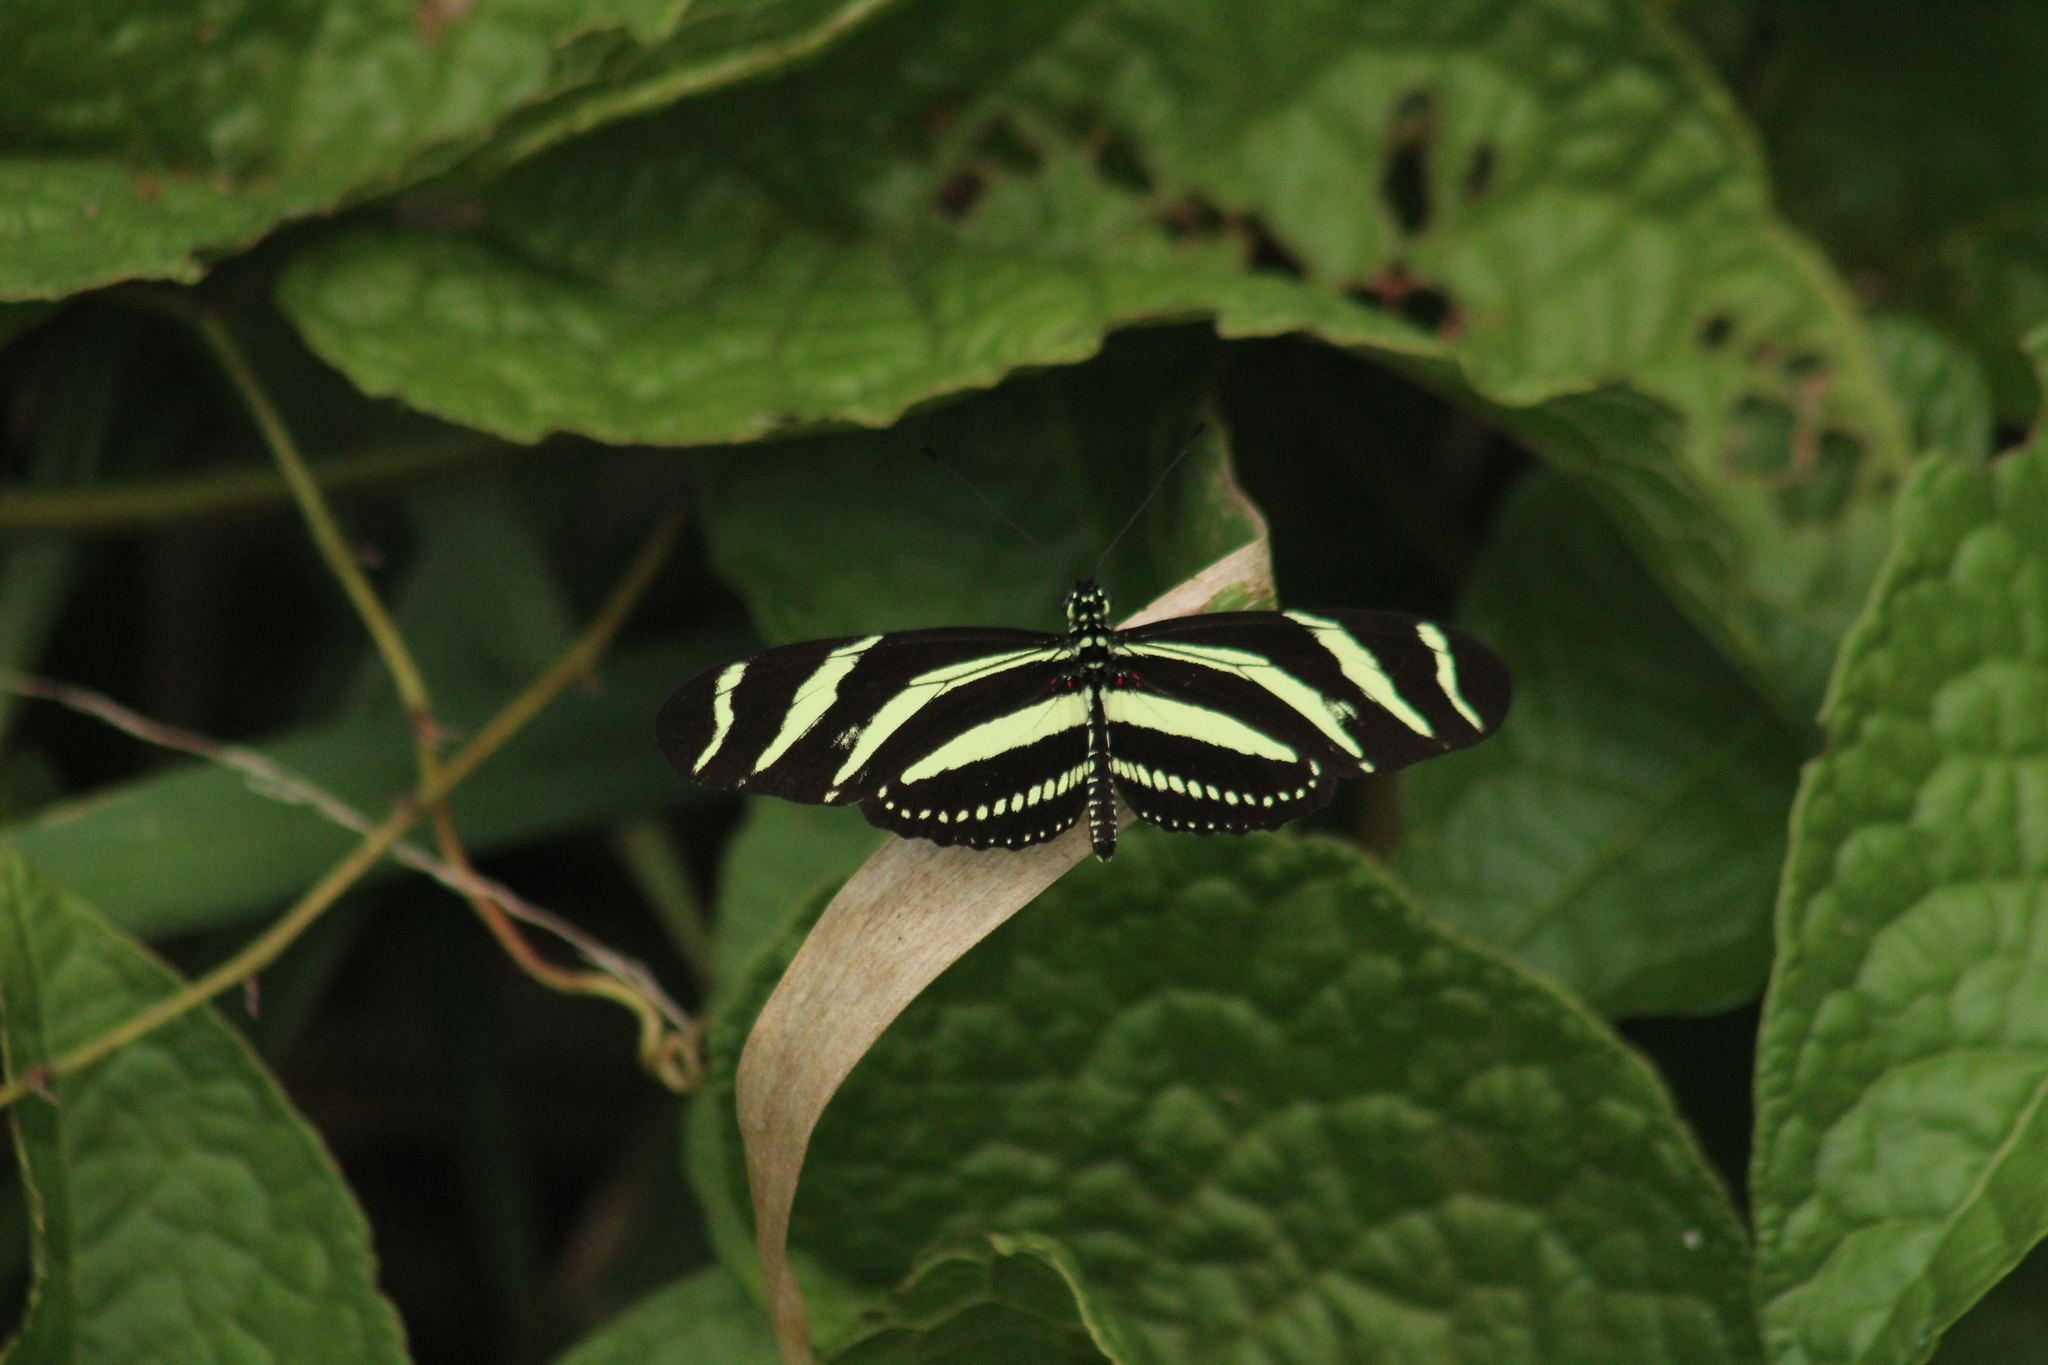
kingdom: Animalia
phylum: Arthropoda
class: Insecta
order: Lepidoptera
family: Nymphalidae
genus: Heliconius
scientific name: Heliconius charithonia
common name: Zebra long wing
